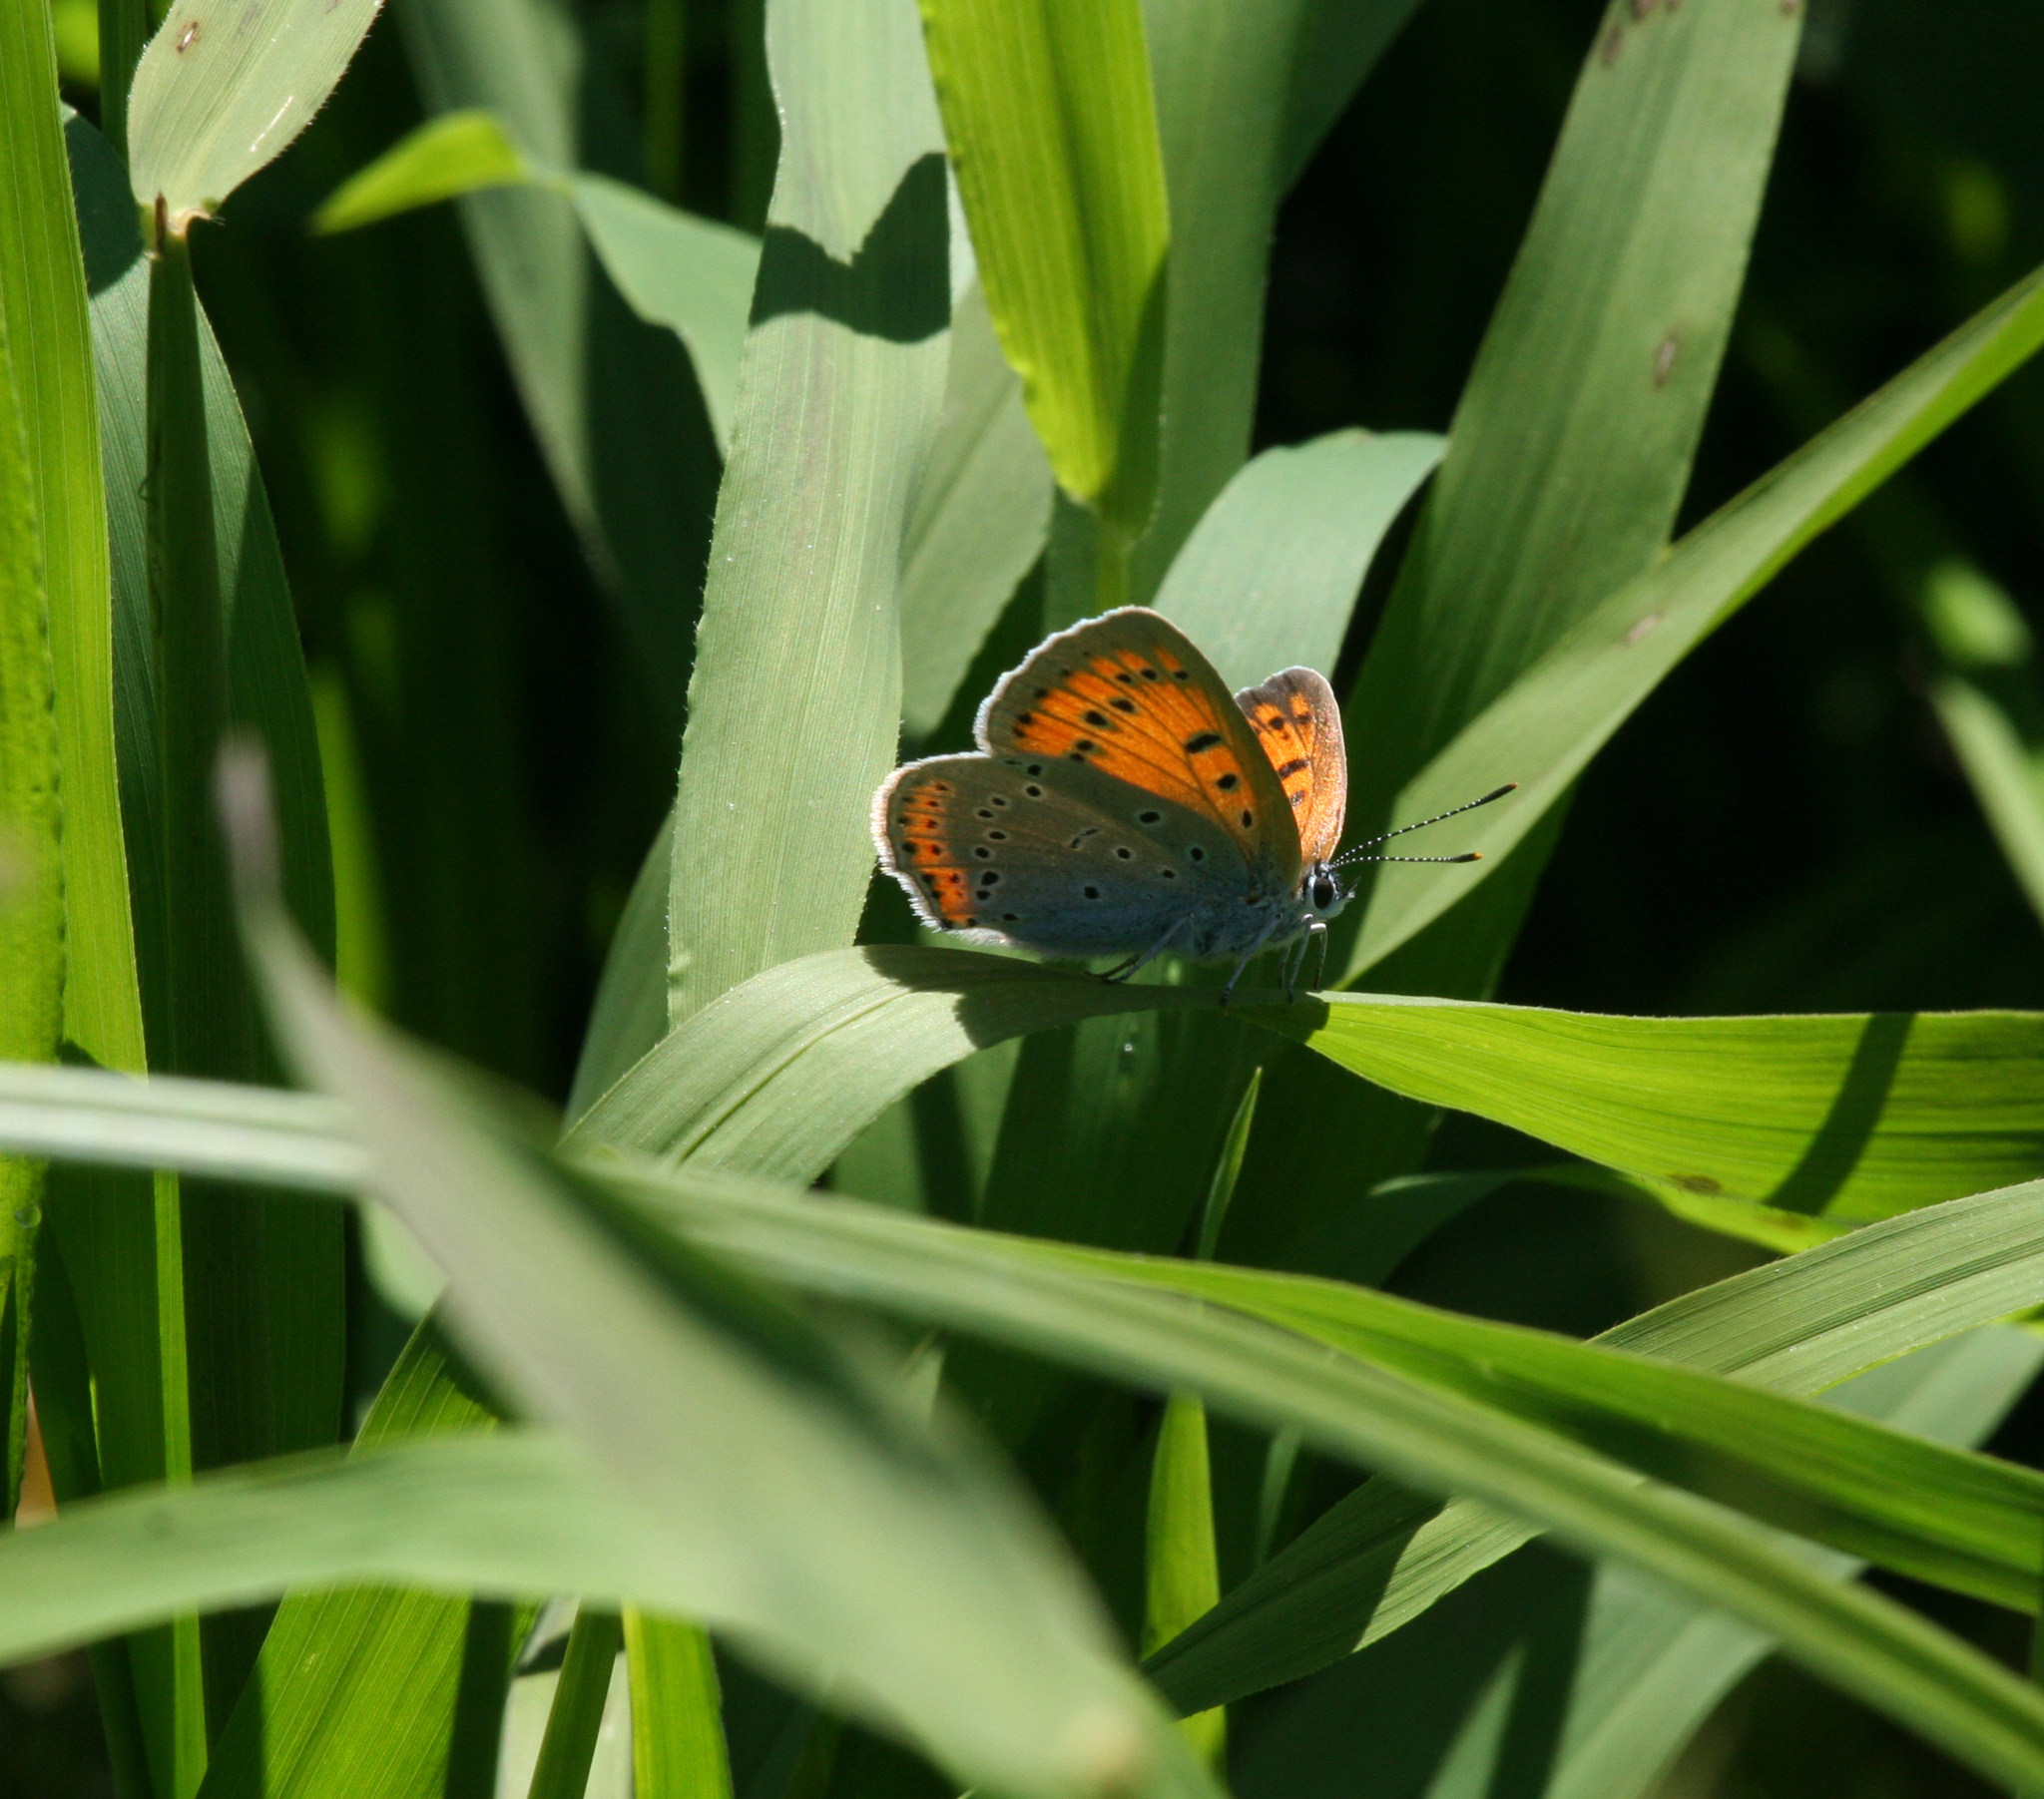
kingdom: Animalia
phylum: Arthropoda
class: Insecta
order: Lepidoptera
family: Lycaenidae
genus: Lycaena
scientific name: Lycaena dispar
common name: Large copper
